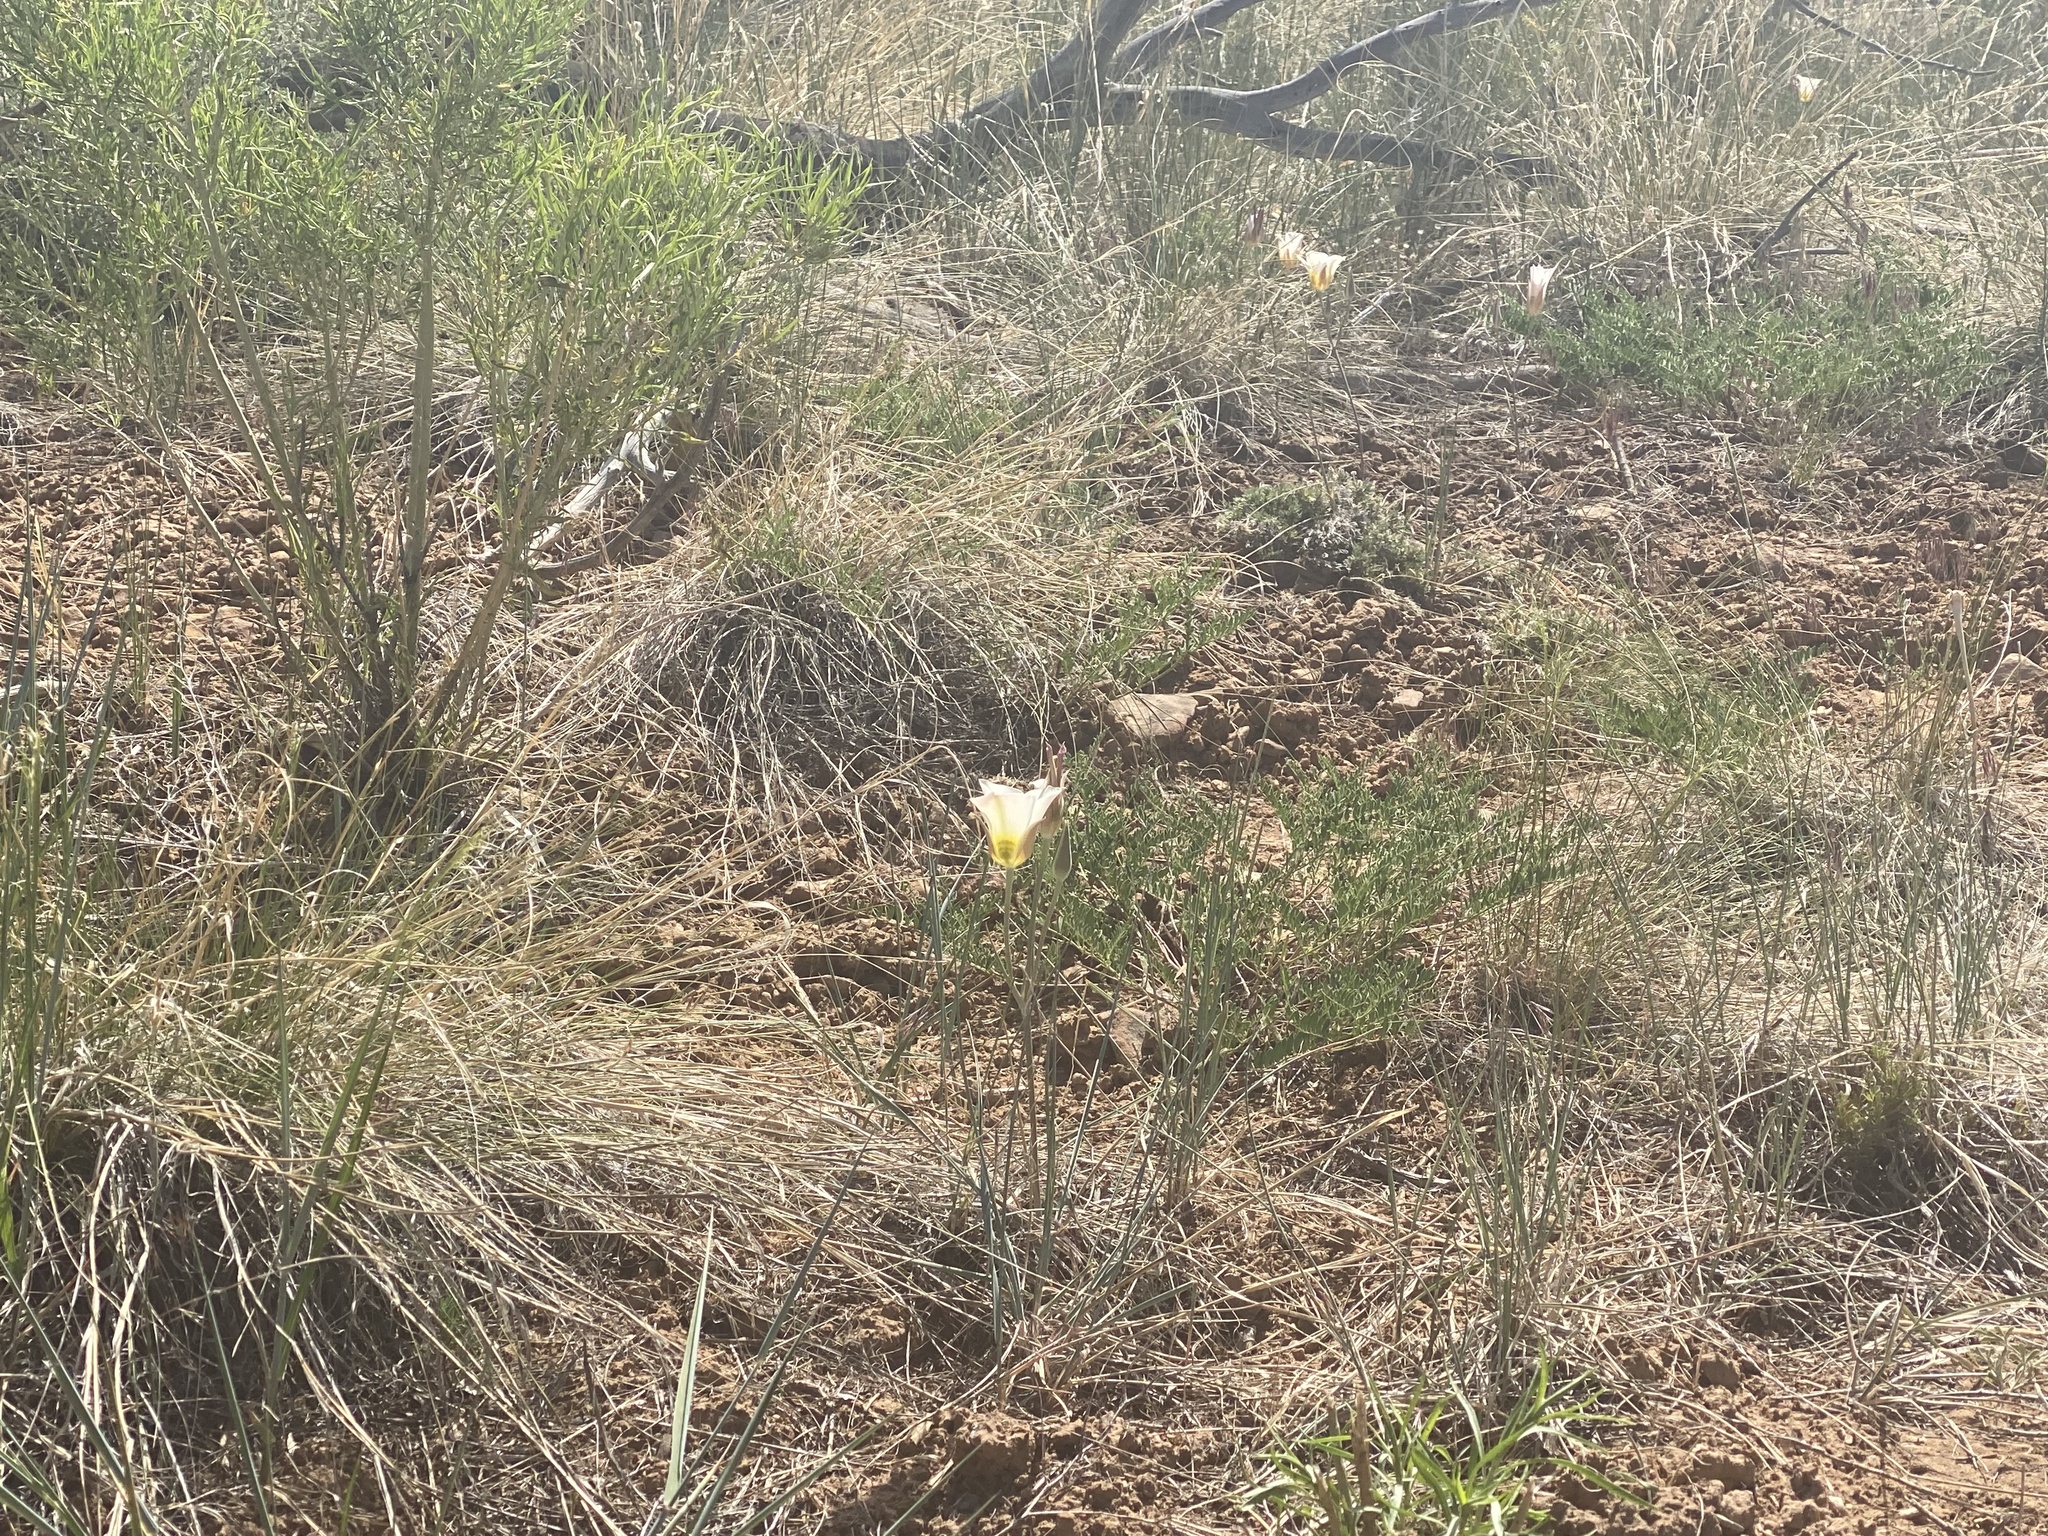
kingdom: Plantae
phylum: Tracheophyta
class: Liliopsida
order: Liliales
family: Liliaceae
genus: Calochortus
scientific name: Calochortus nuttallii
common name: Sego-lily
